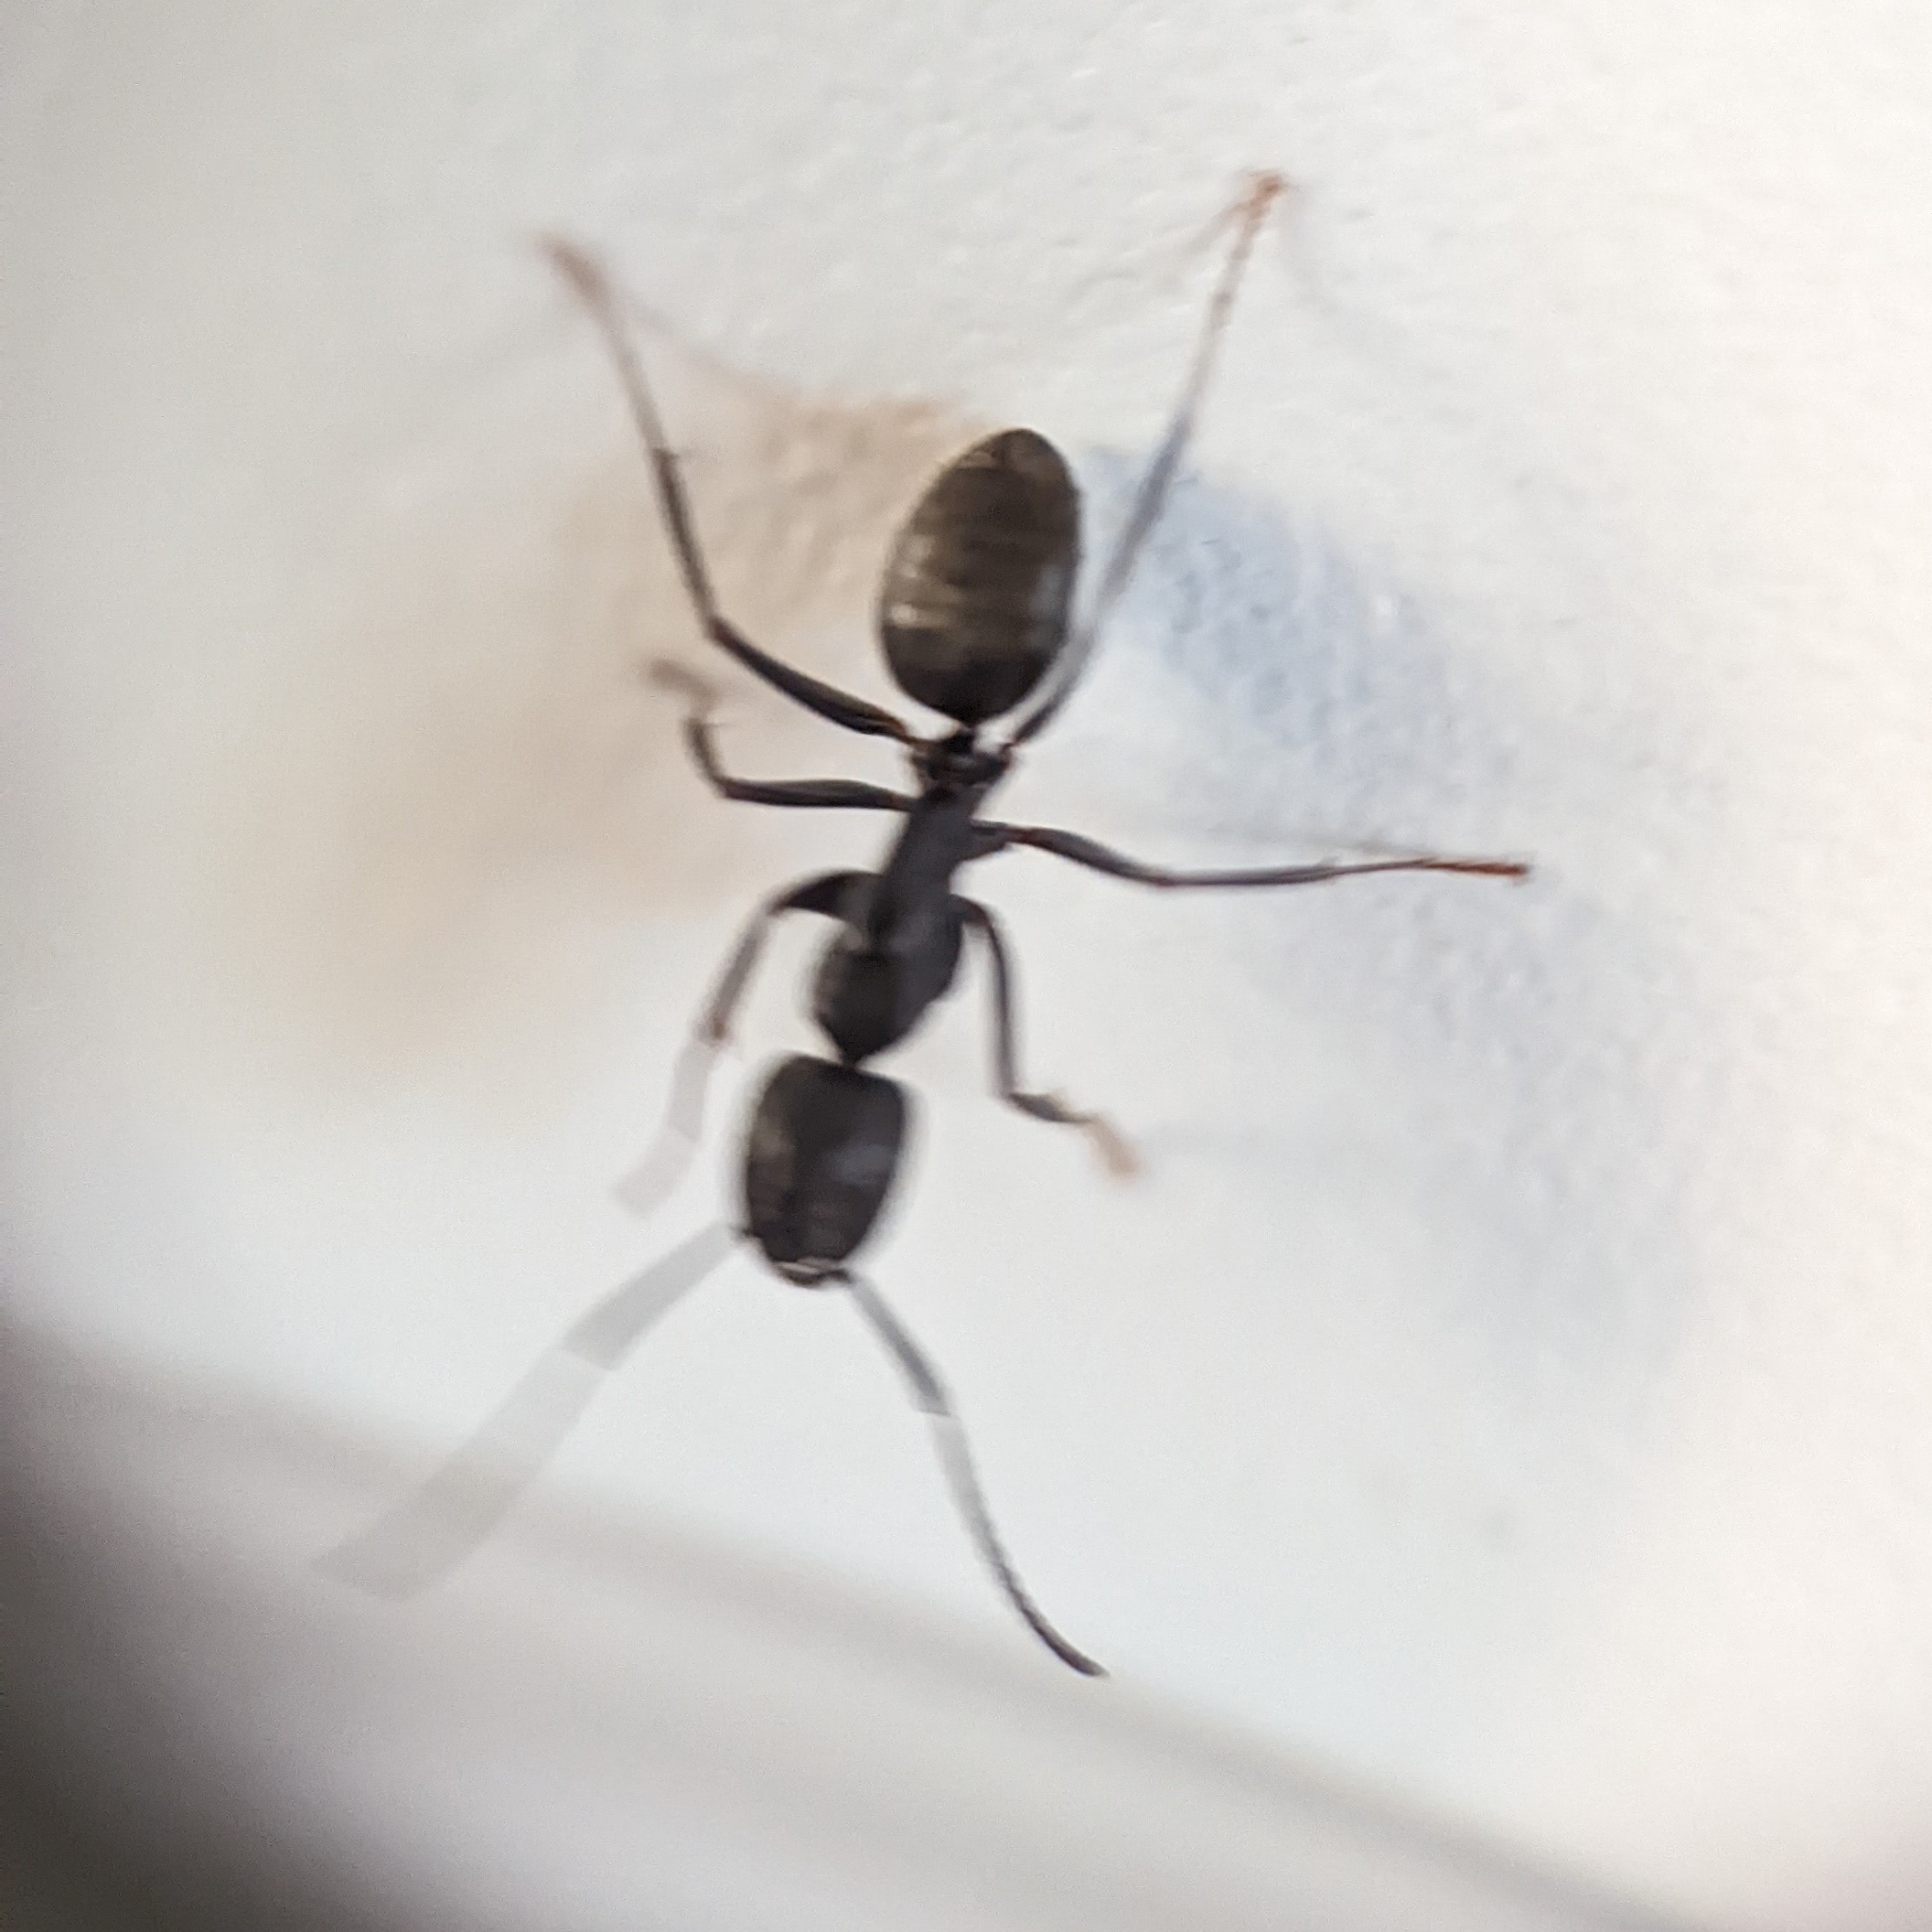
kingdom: Animalia
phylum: Arthropoda
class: Insecta
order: Hymenoptera
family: Formicidae
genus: Camponotus
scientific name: Camponotus pennsylvanicus
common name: Black carpenter ant
